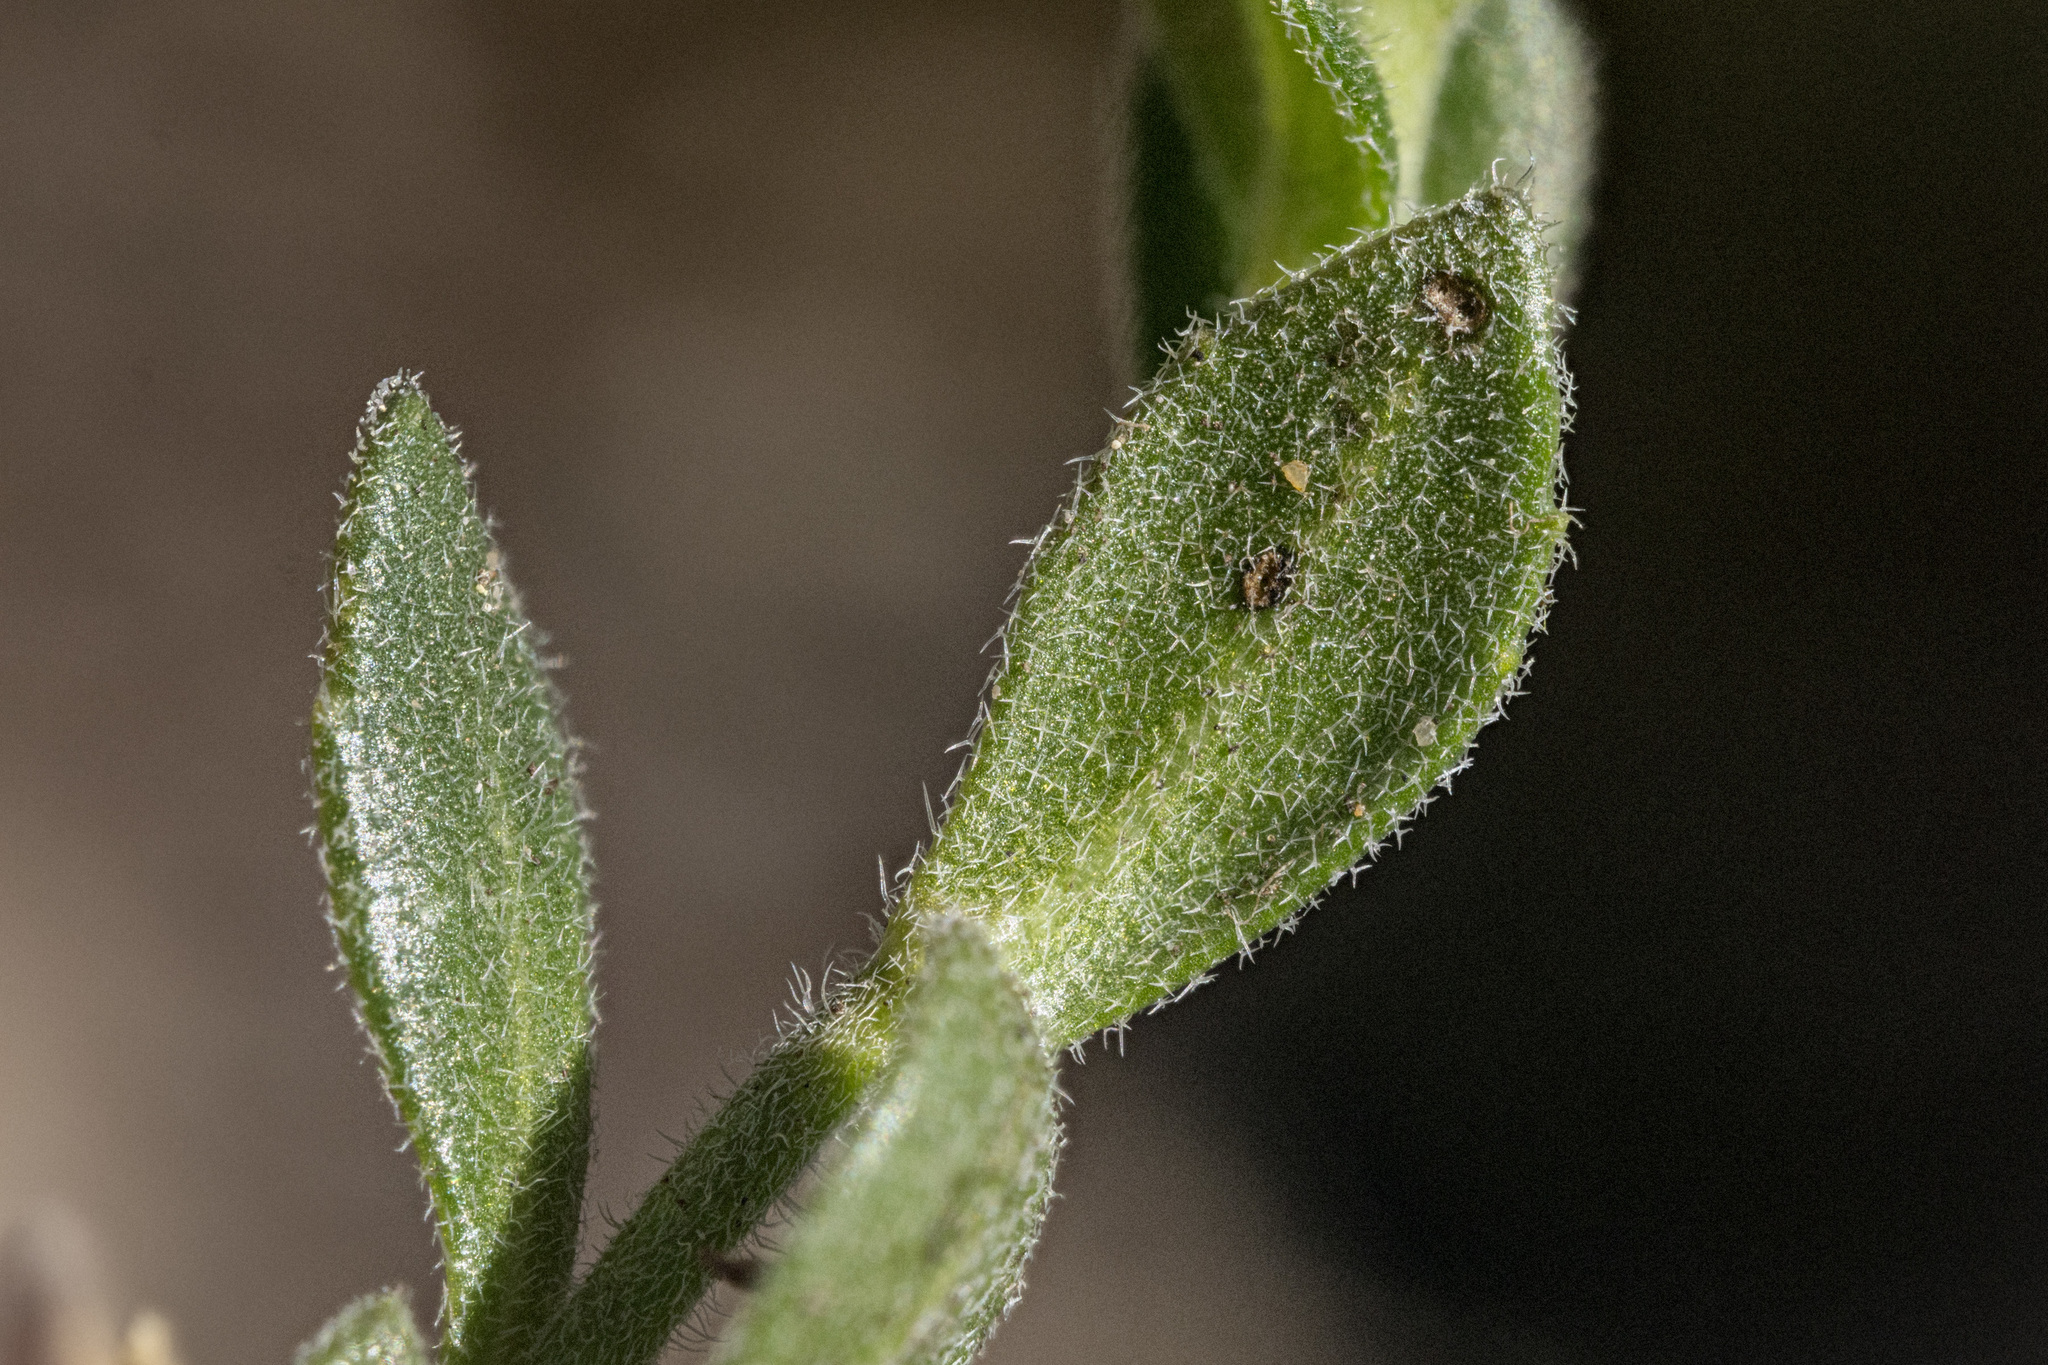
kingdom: Plantae
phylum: Tracheophyta
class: Magnoliopsida
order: Brassicales
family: Brassicaceae
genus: Draba
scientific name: Draba aurea
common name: Golden draba
